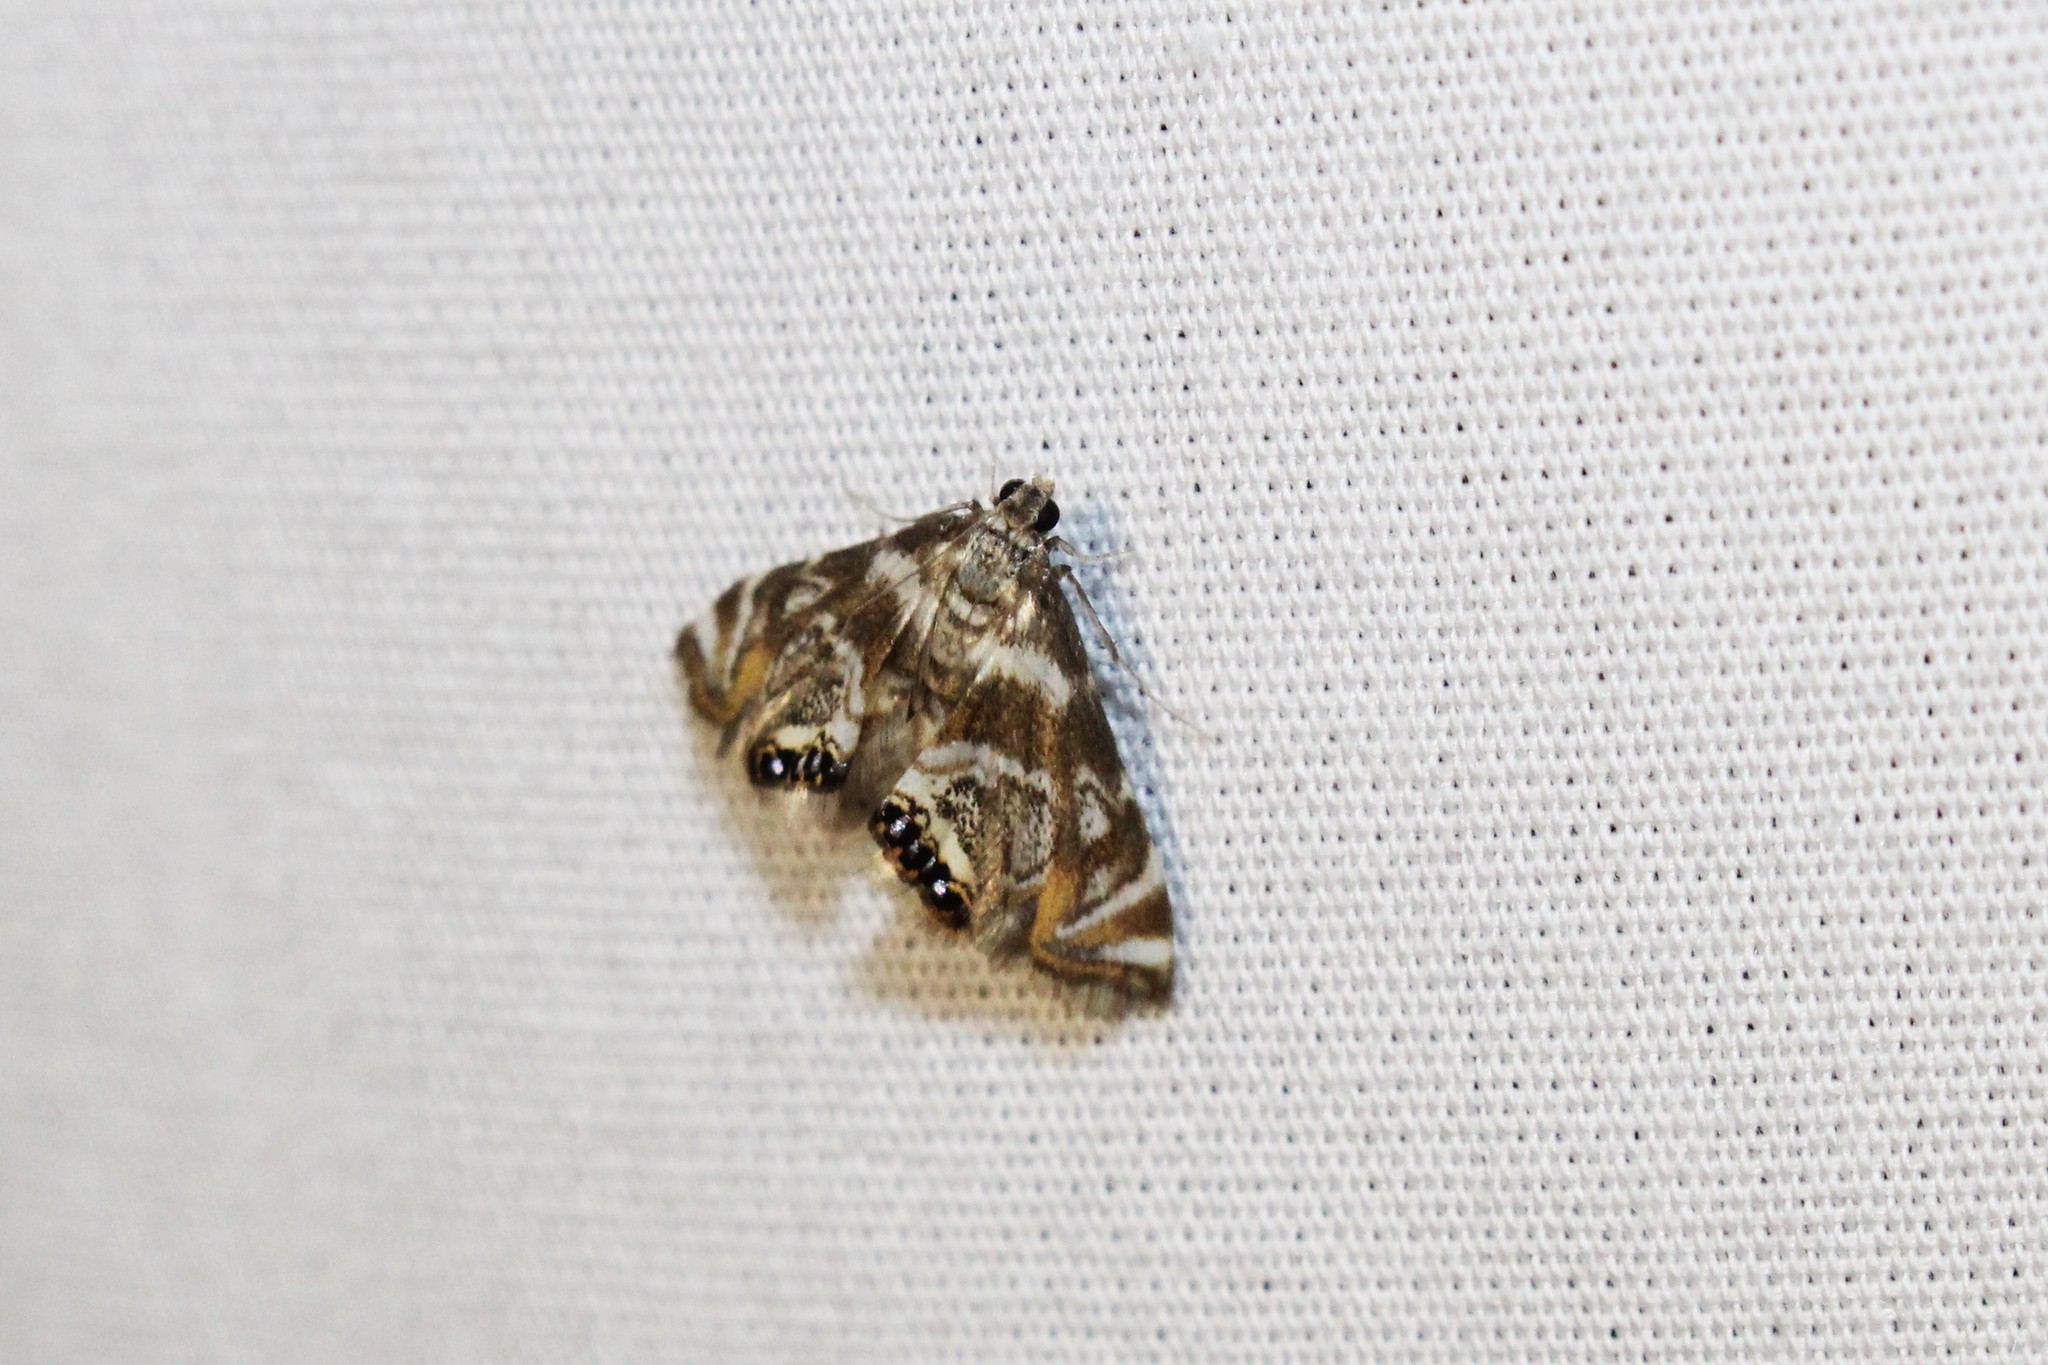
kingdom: Animalia
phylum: Arthropoda
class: Insecta
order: Lepidoptera
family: Crambidae
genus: Petrophila
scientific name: Petrophila canadensis
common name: Canadian petrophila
